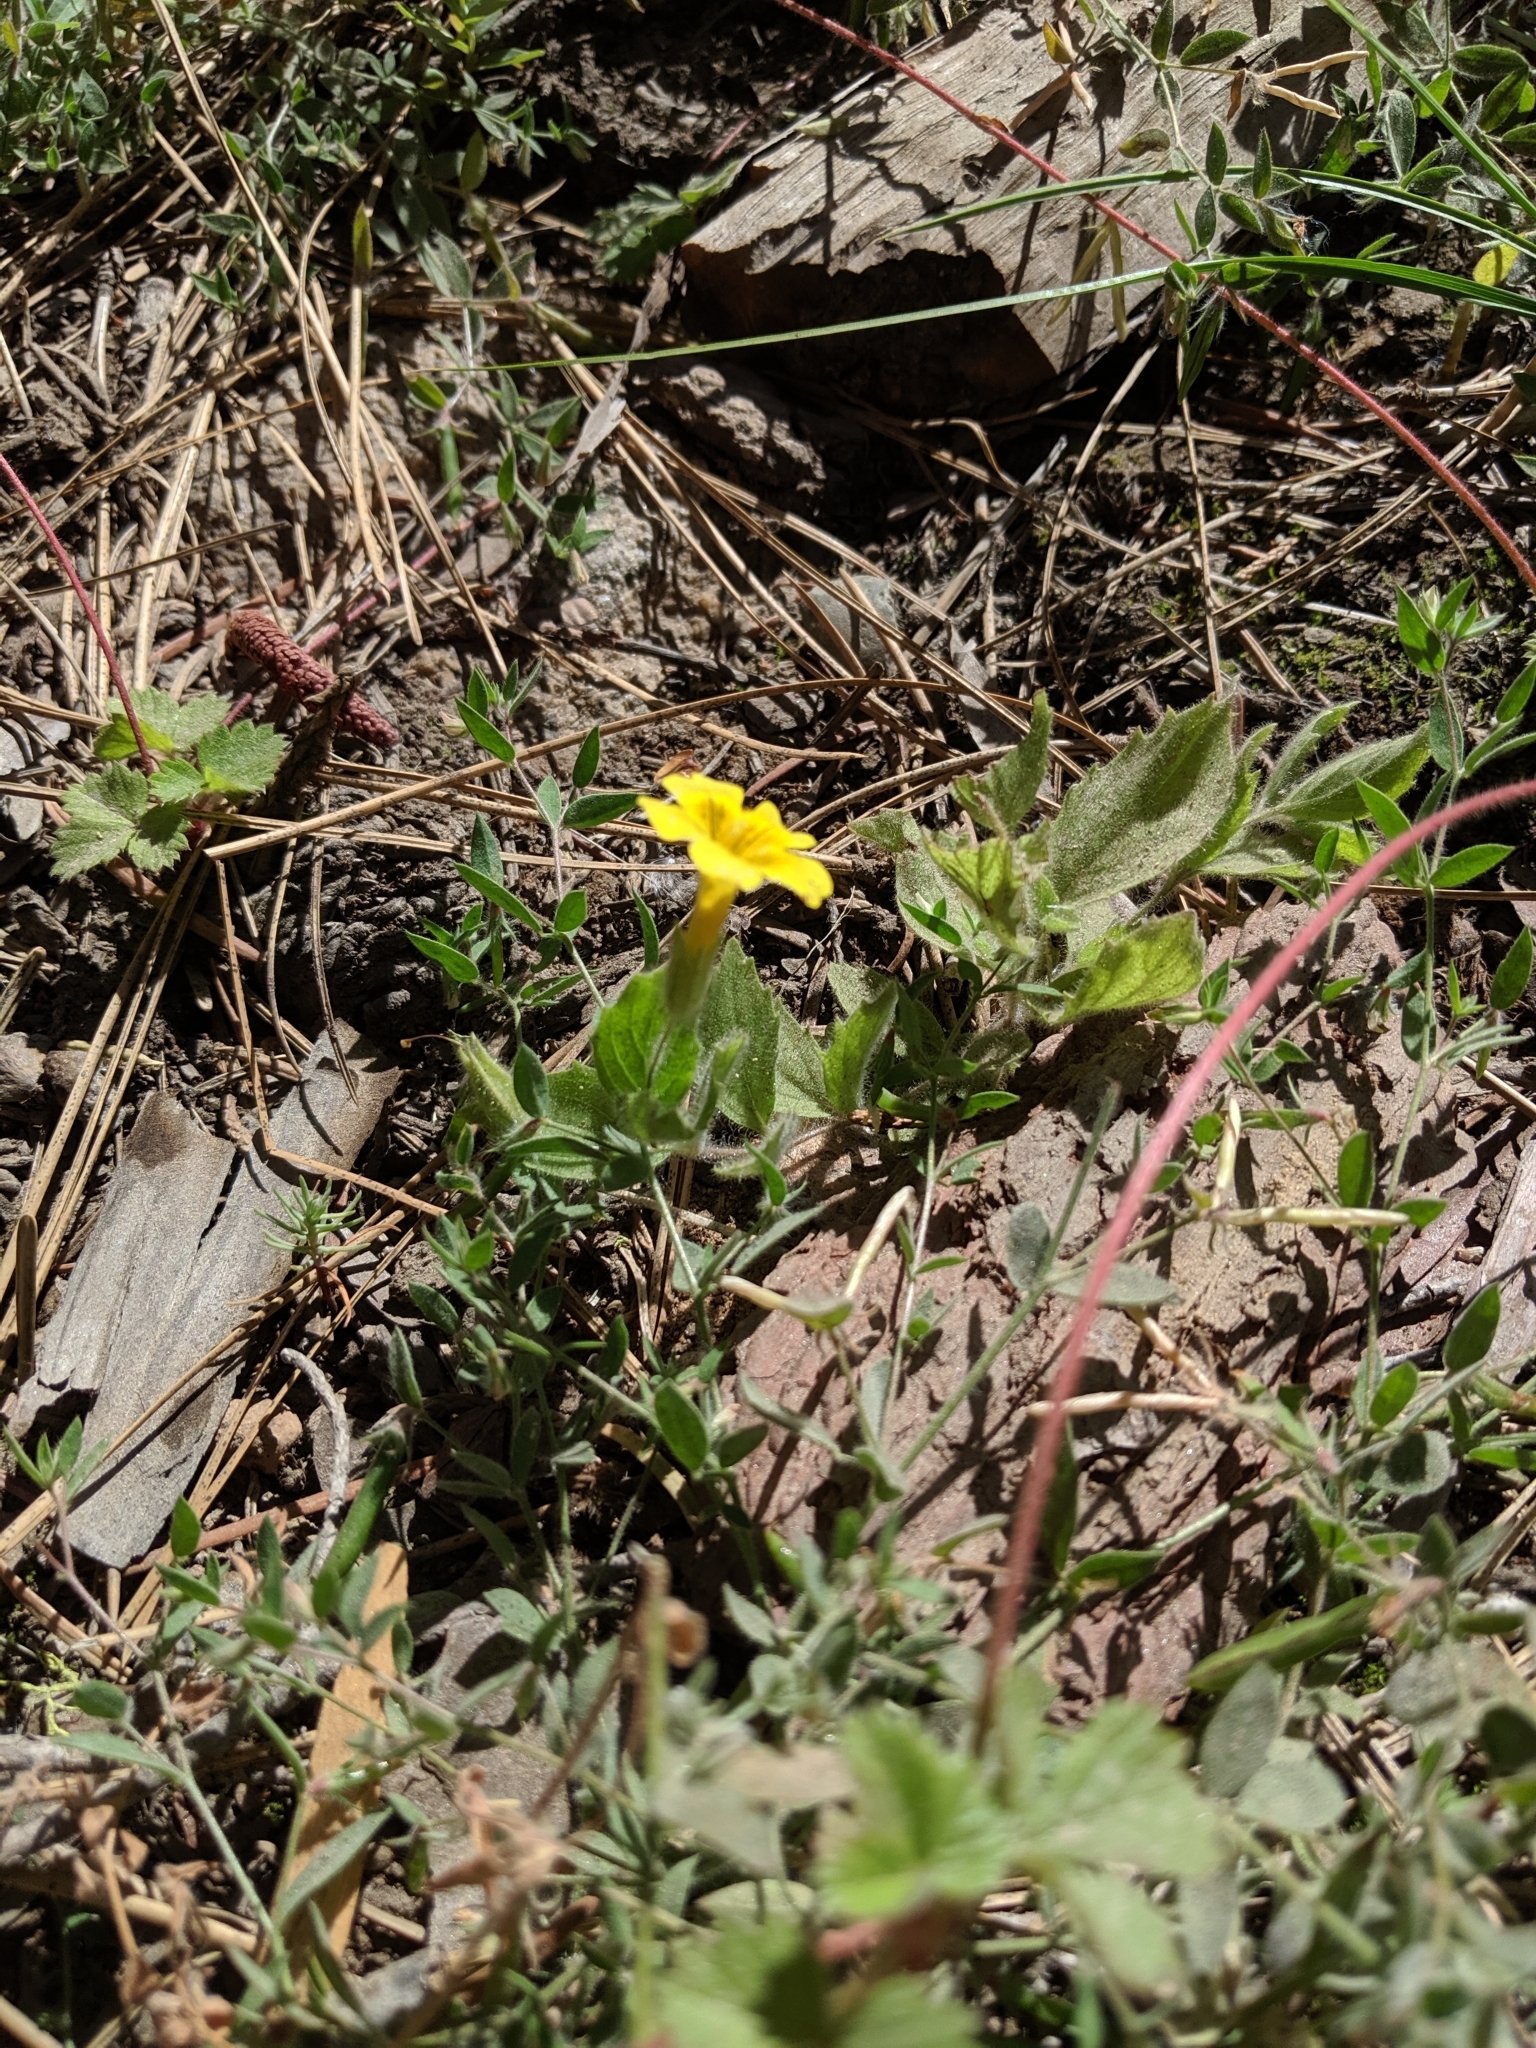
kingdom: Plantae
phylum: Tracheophyta
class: Magnoliopsida
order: Lamiales
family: Phrymaceae
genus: Erythranthe
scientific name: Erythranthe moschata
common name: Muskflower
